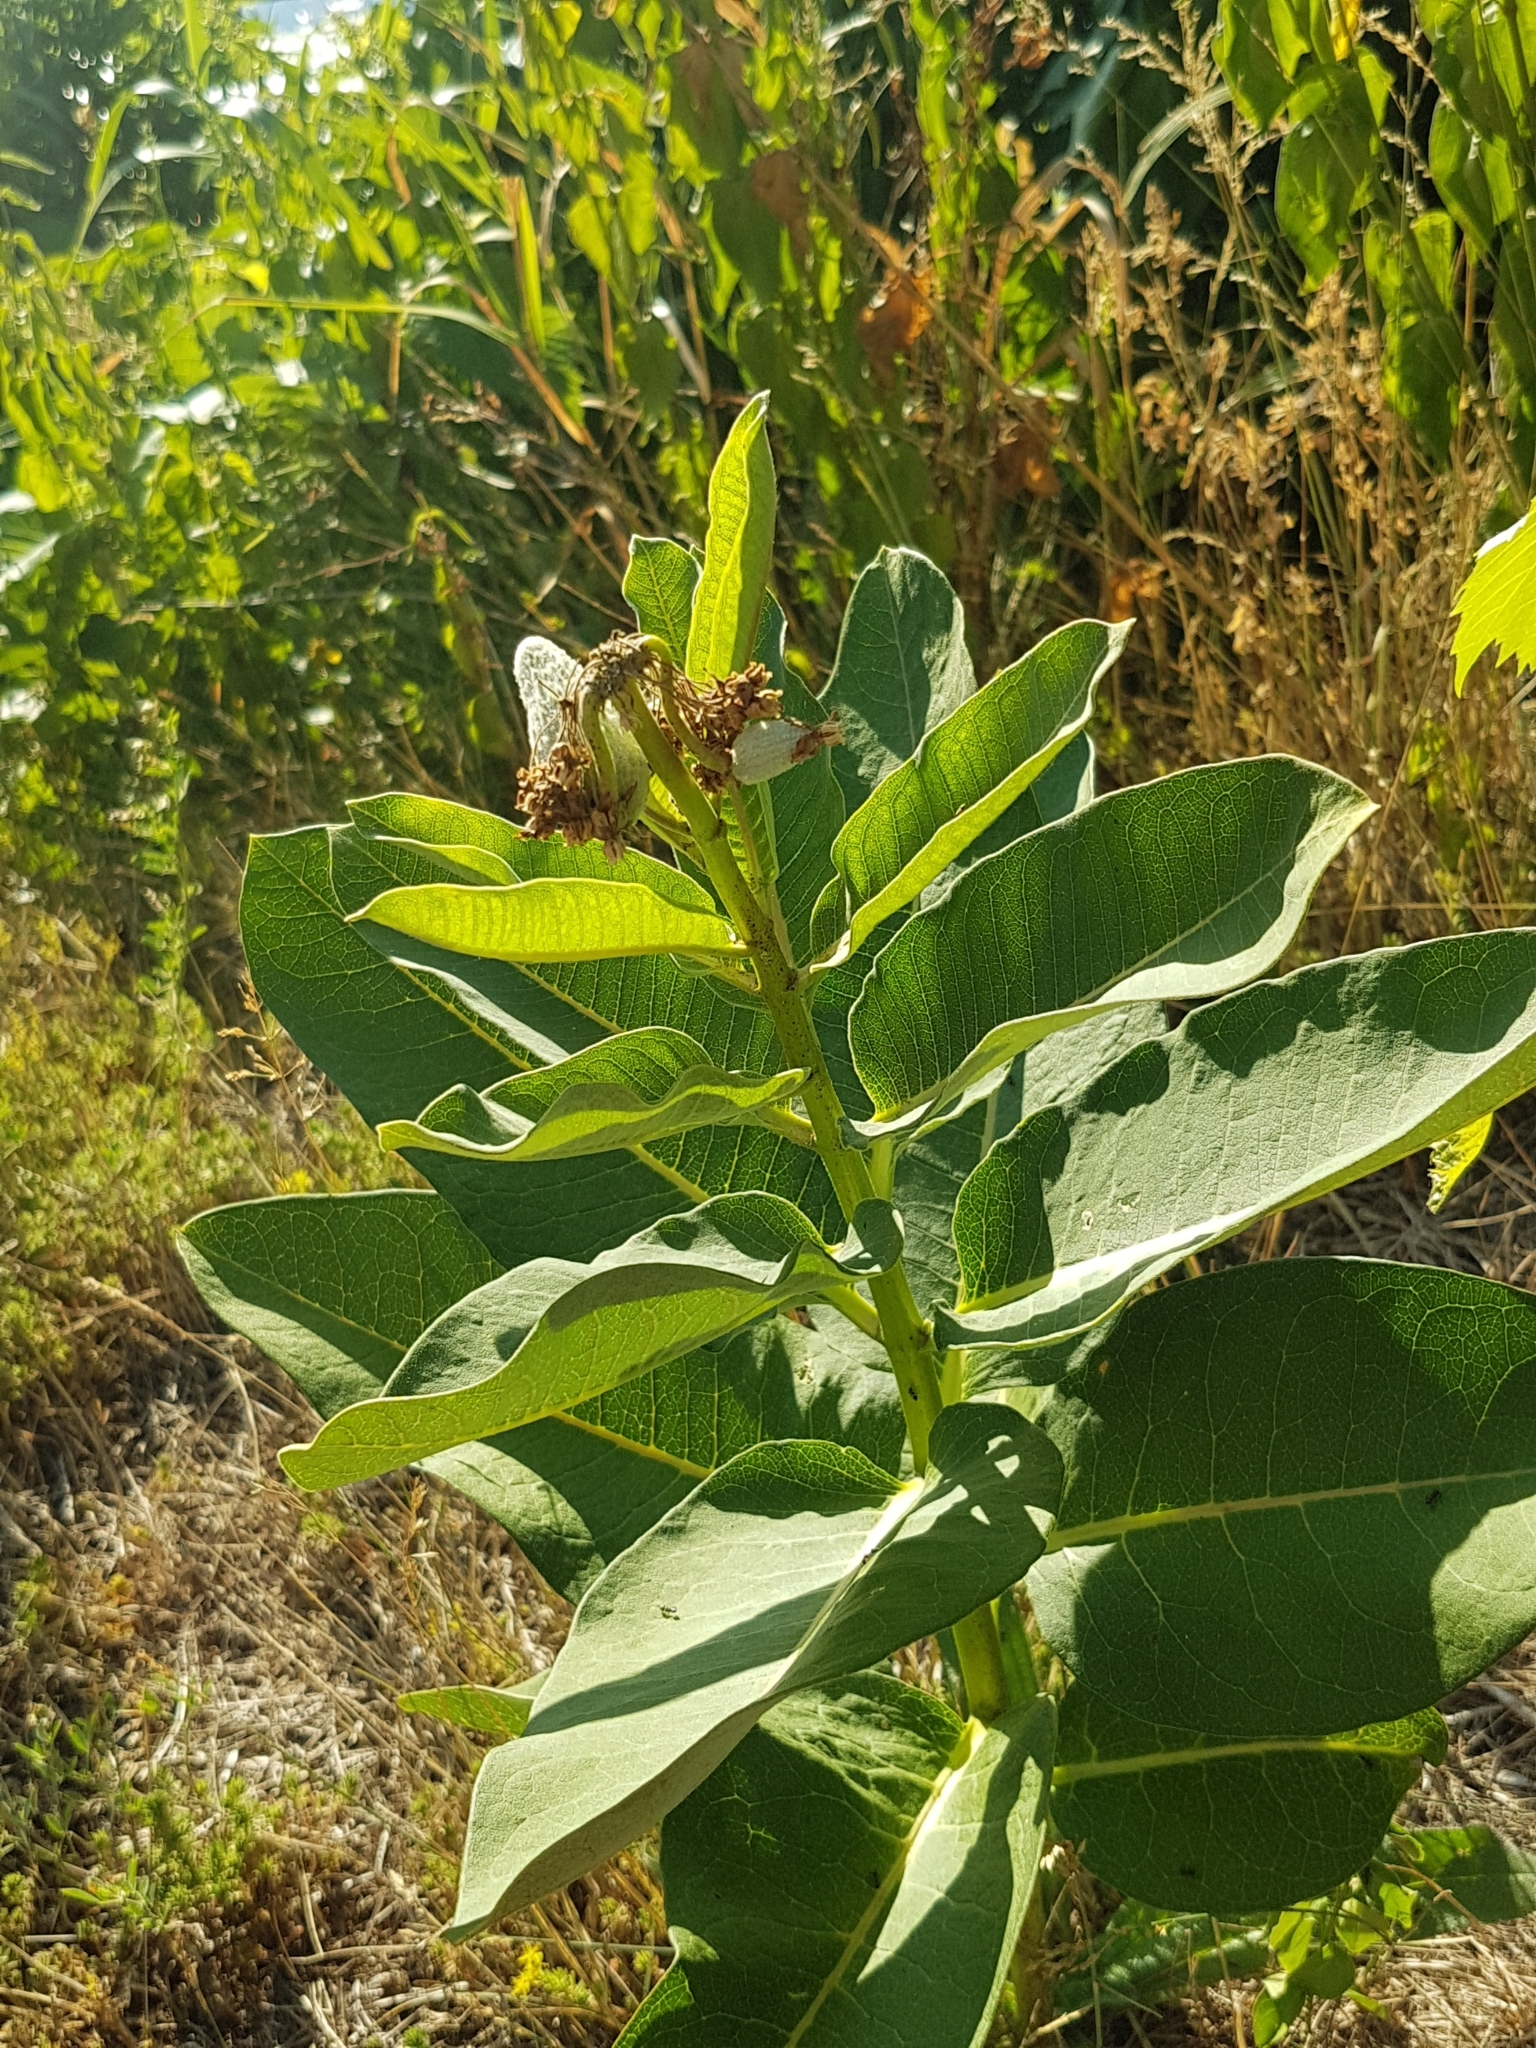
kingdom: Plantae
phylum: Tracheophyta
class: Magnoliopsida
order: Gentianales
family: Apocynaceae
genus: Asclepias
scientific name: Asclepias syriaca
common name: Common milkweed
